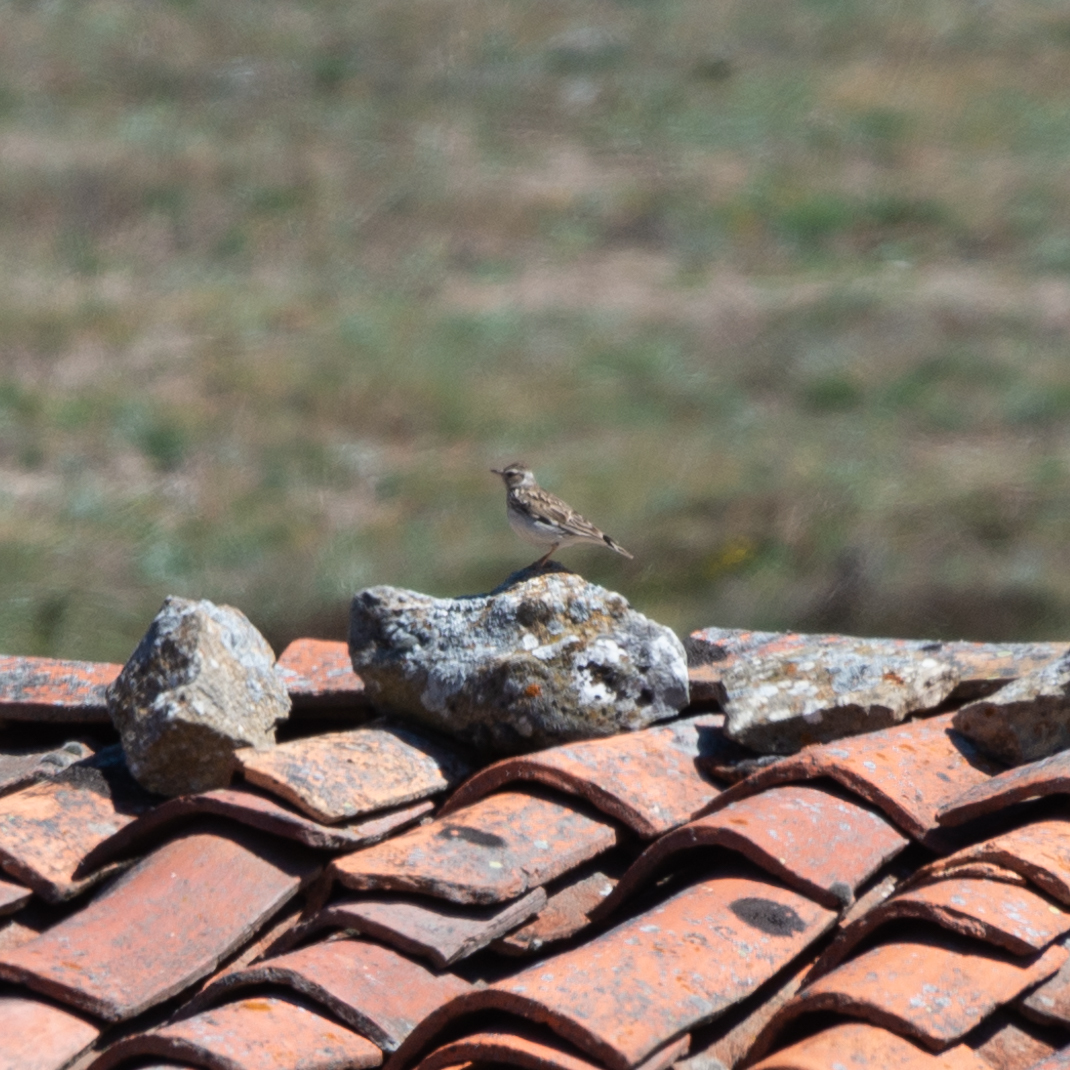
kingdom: Animalia
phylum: Chordata
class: Aves
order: Passeriformes
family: Alaudidae
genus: Lullula
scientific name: Lullula arborea
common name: Woodlark
